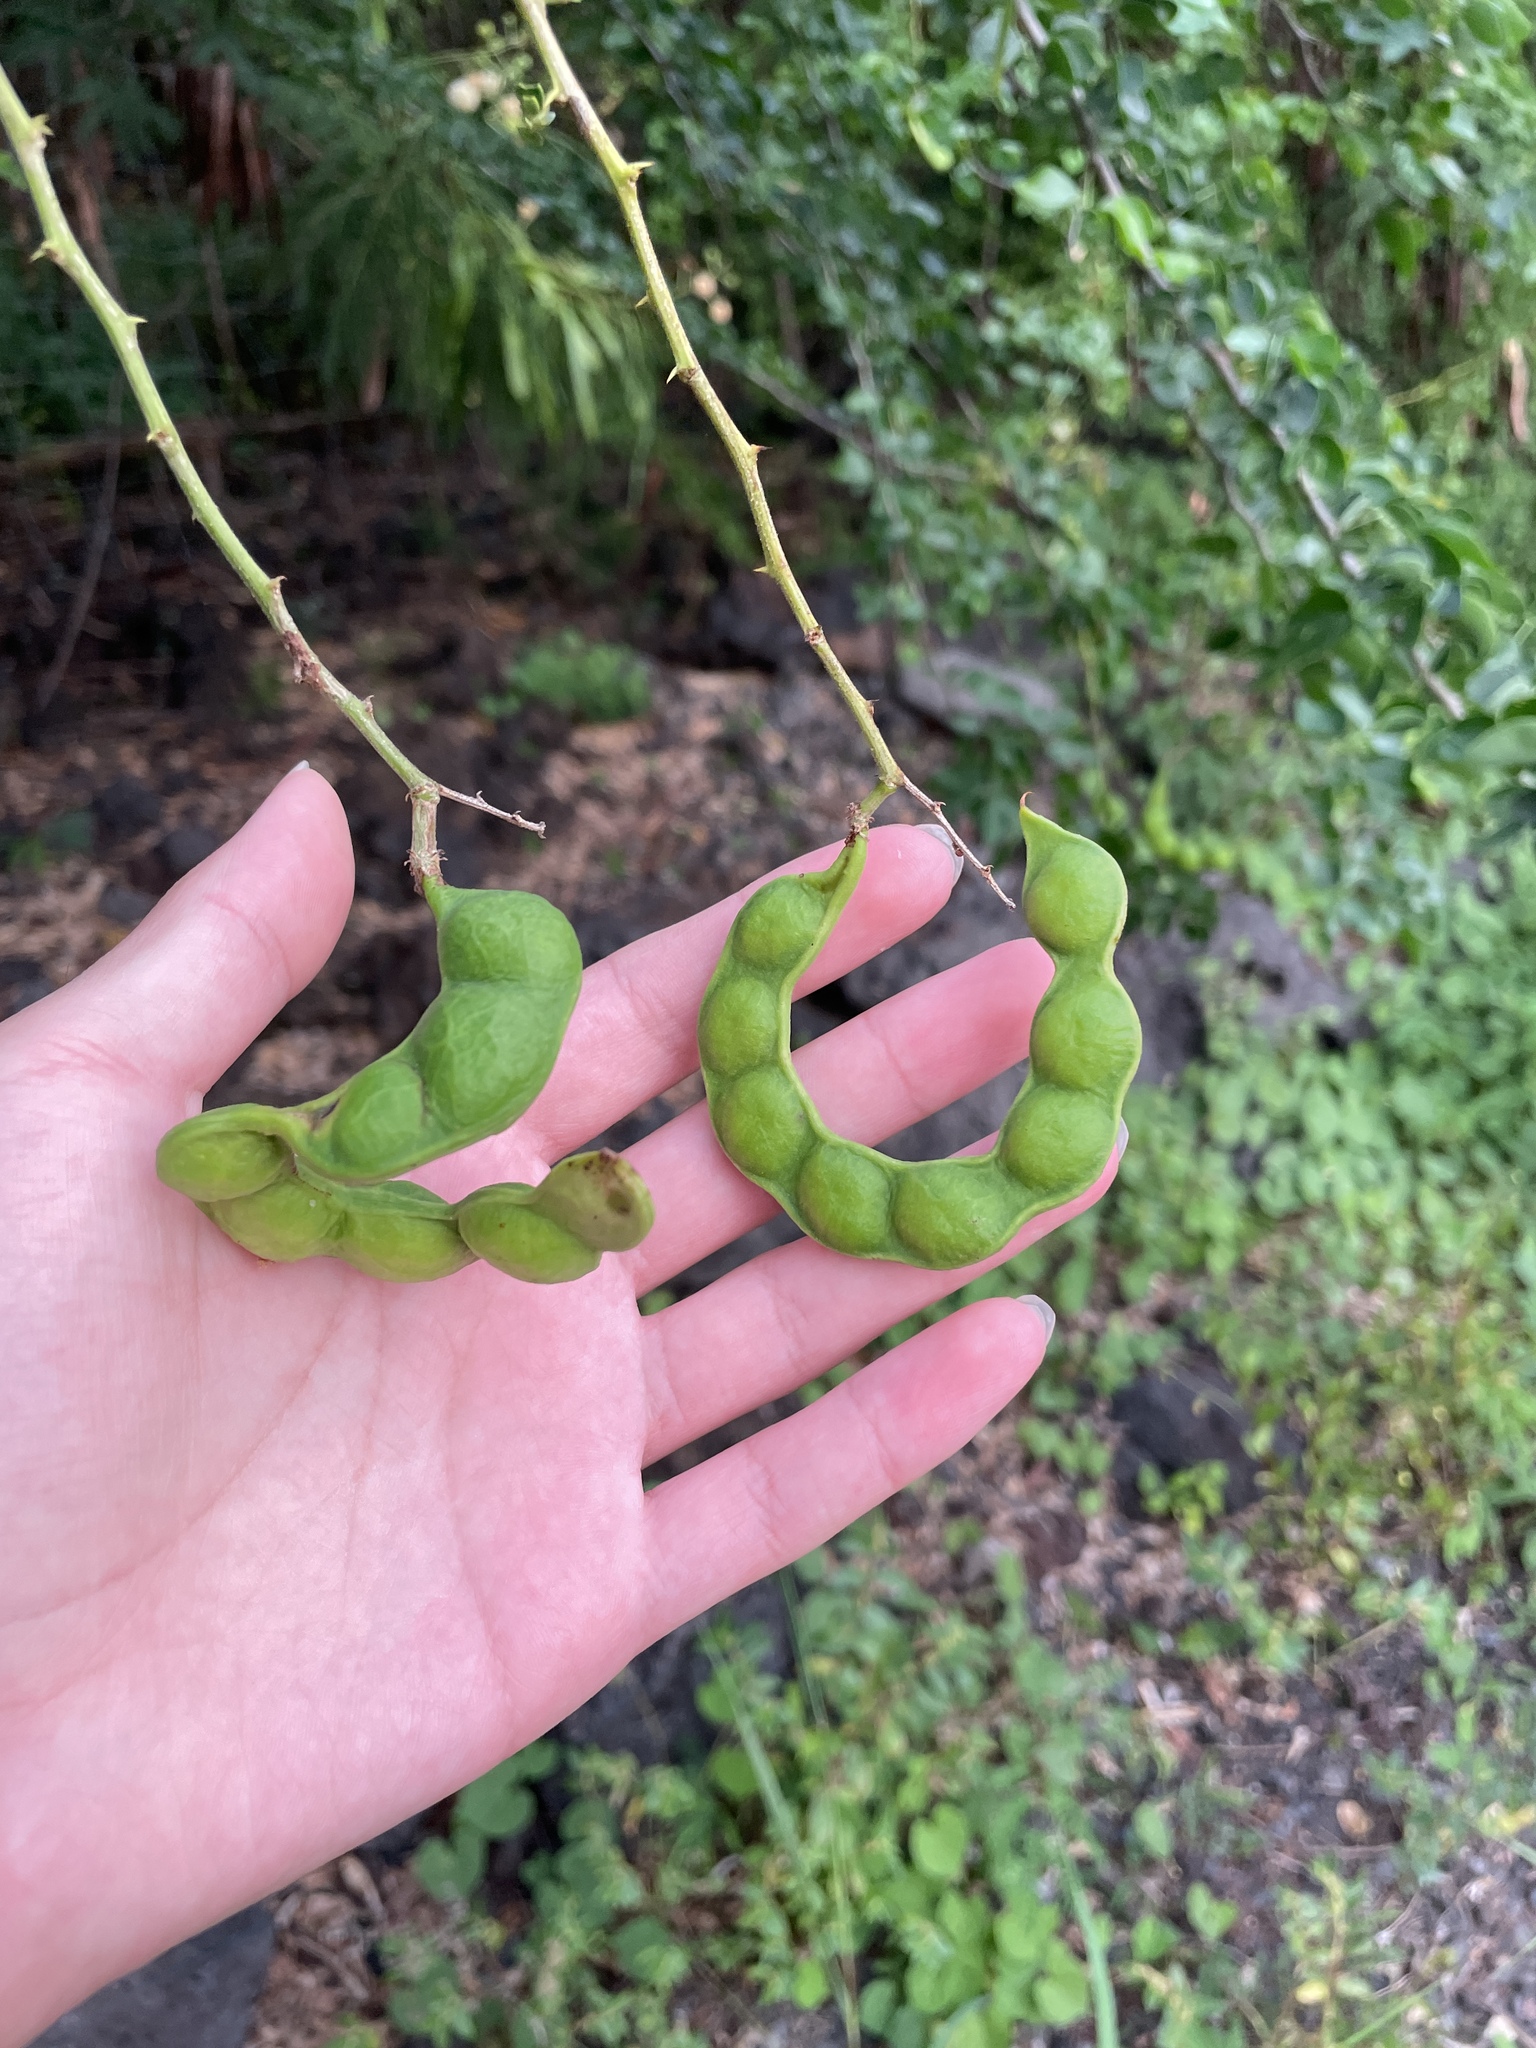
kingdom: Plantae
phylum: Tracheophyta
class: Magnoliopsida
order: Fabales
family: Fabaceae
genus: Pithecellobium
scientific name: Pithecellobium dulce
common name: Monkeypod
